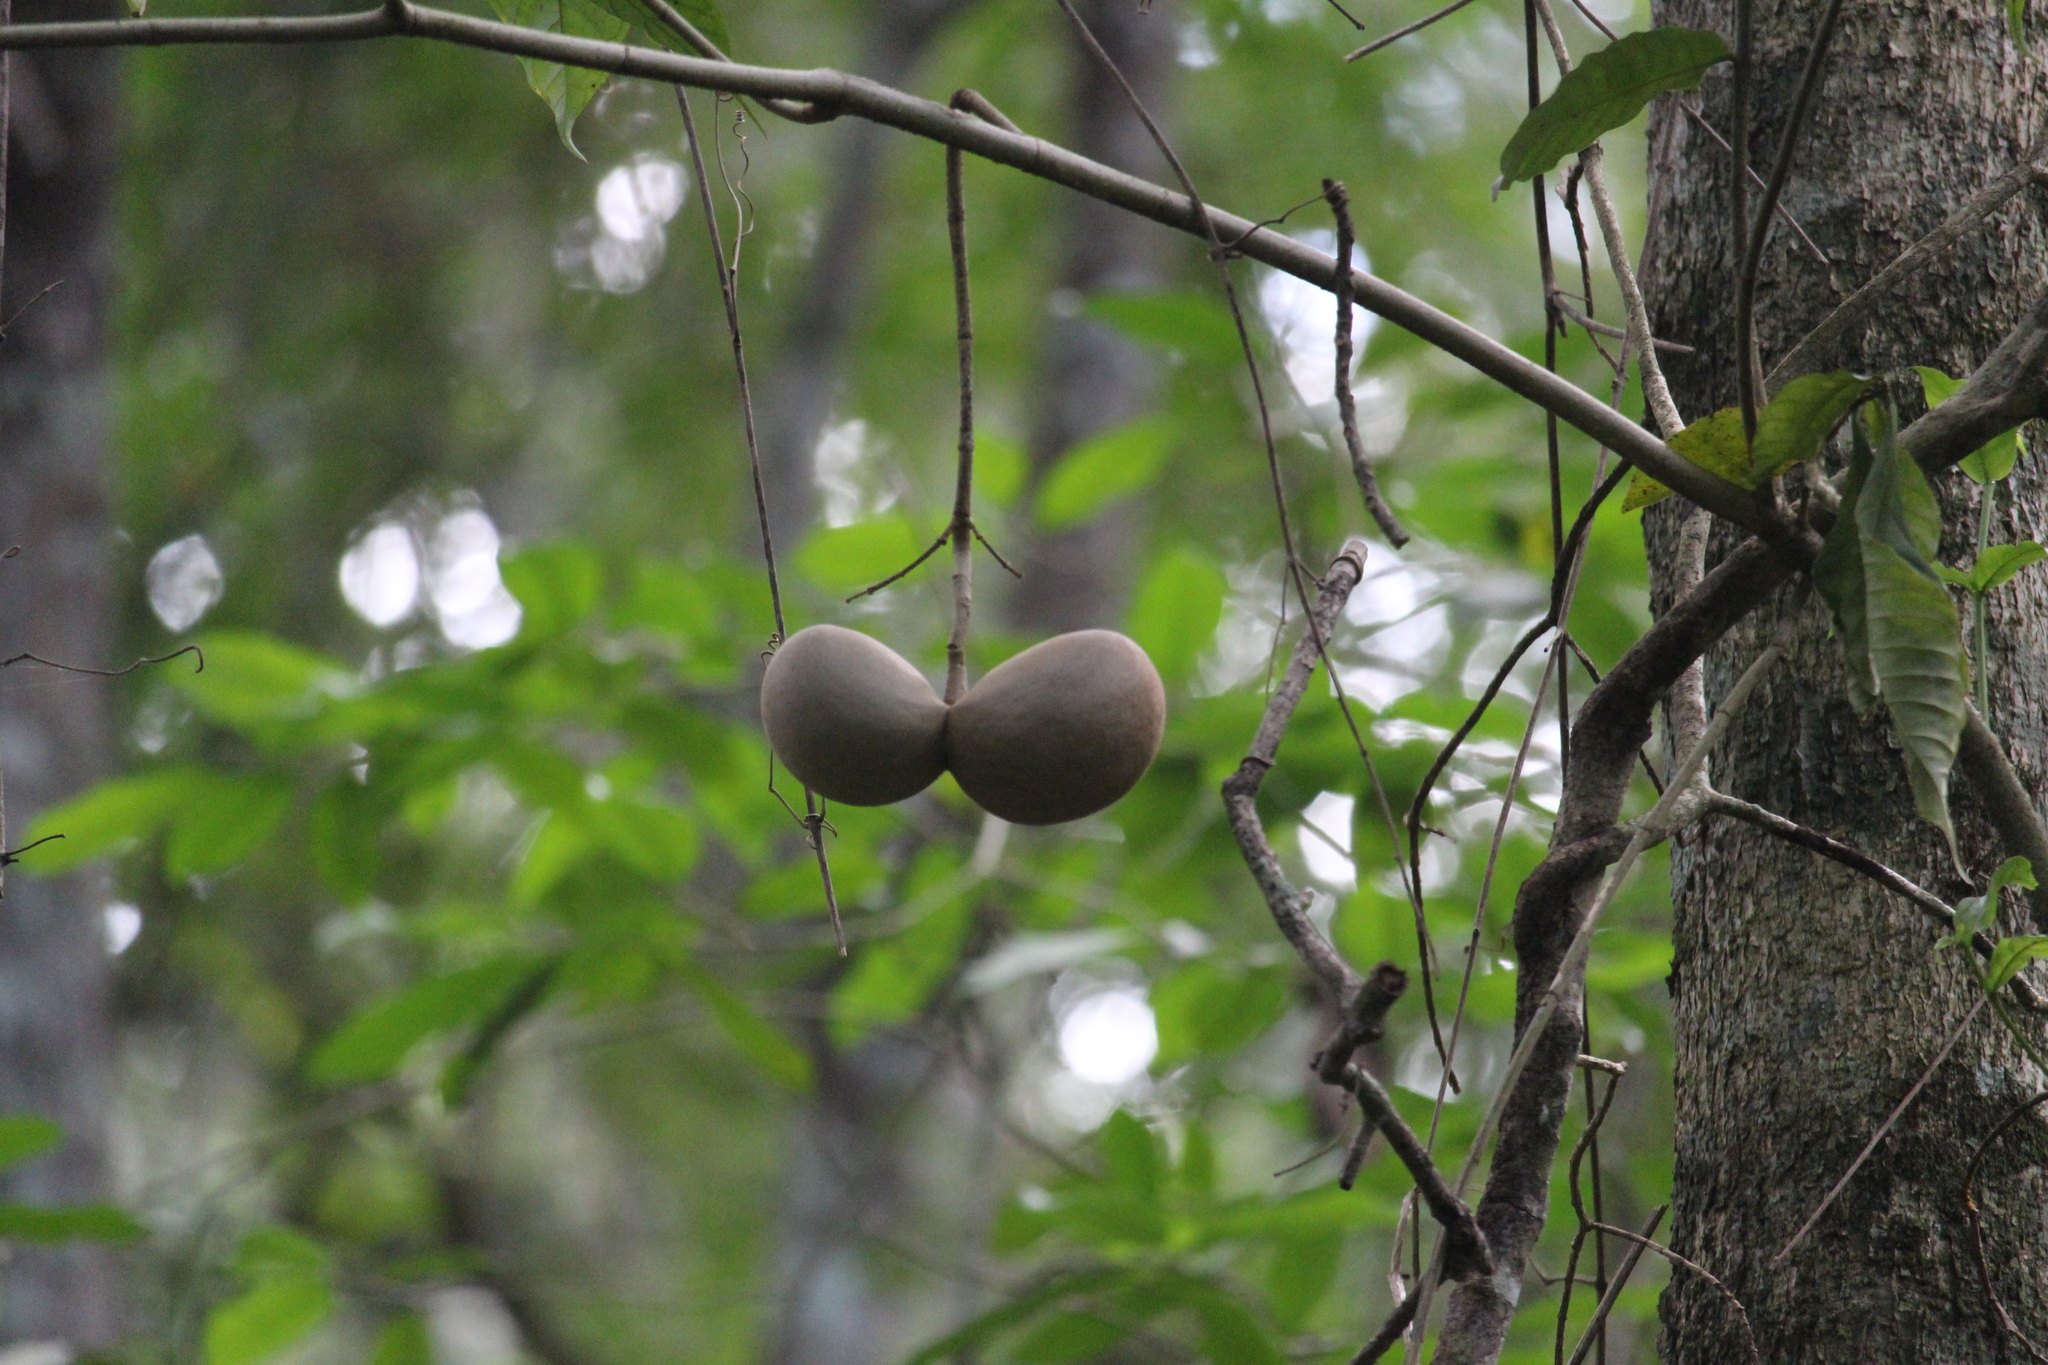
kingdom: Plantae
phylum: Tracheophyta
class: Magnoliopsida
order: Gentianales
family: Apocynaceae
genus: Tabernaemontana
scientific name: Tabernaemontana donnell-smithii
